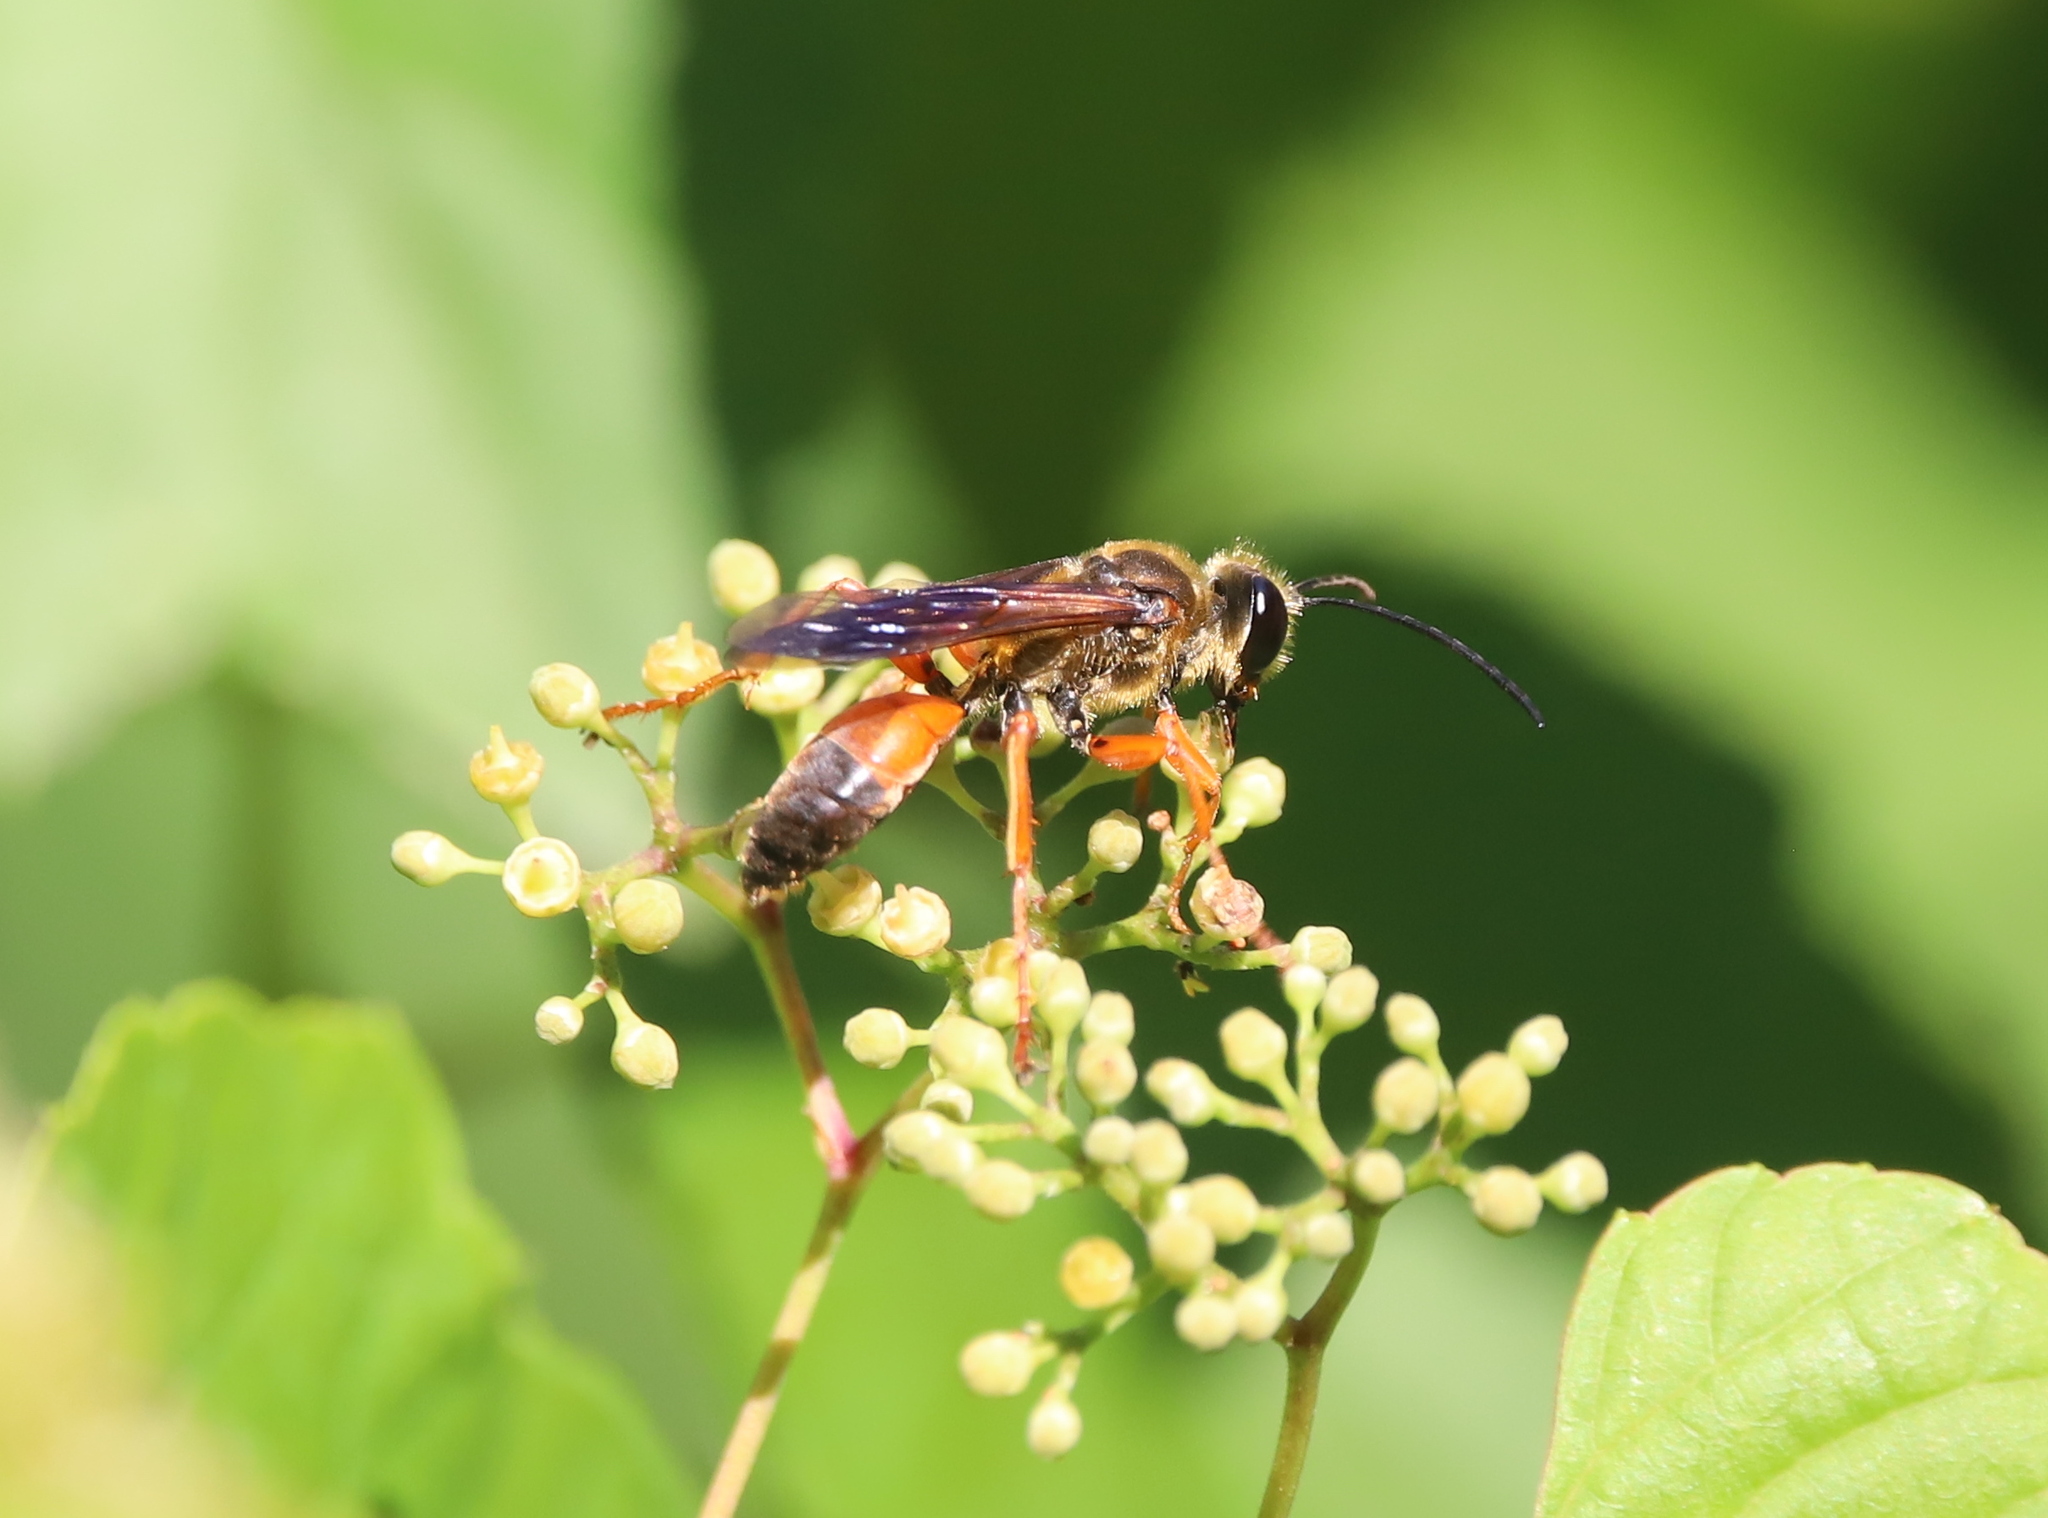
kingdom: Animalia
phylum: Arthropoda
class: Insecta
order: Hymenoptera
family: Sphecidae
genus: Sphex
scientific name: Sphex ichneumoneus
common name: Great golden digger wasp
